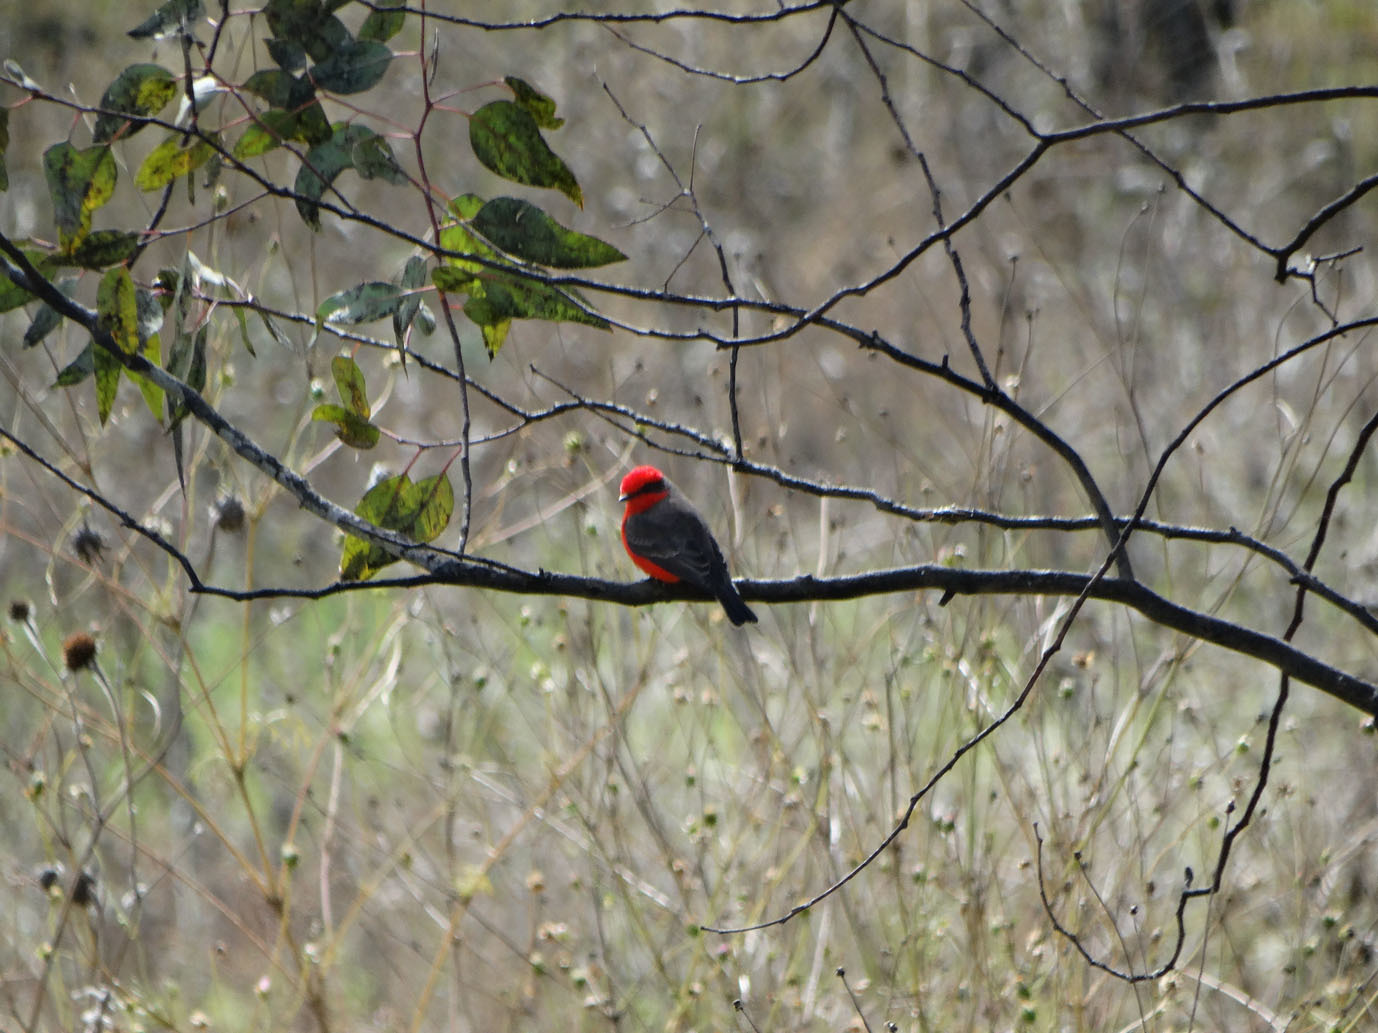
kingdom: Animalia
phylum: Chordata
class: Aves
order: Passeriformes
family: Tyrannidae
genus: Pyrocephalus
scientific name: Pyrocephalus rubinus
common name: Vermilion flycatcher
